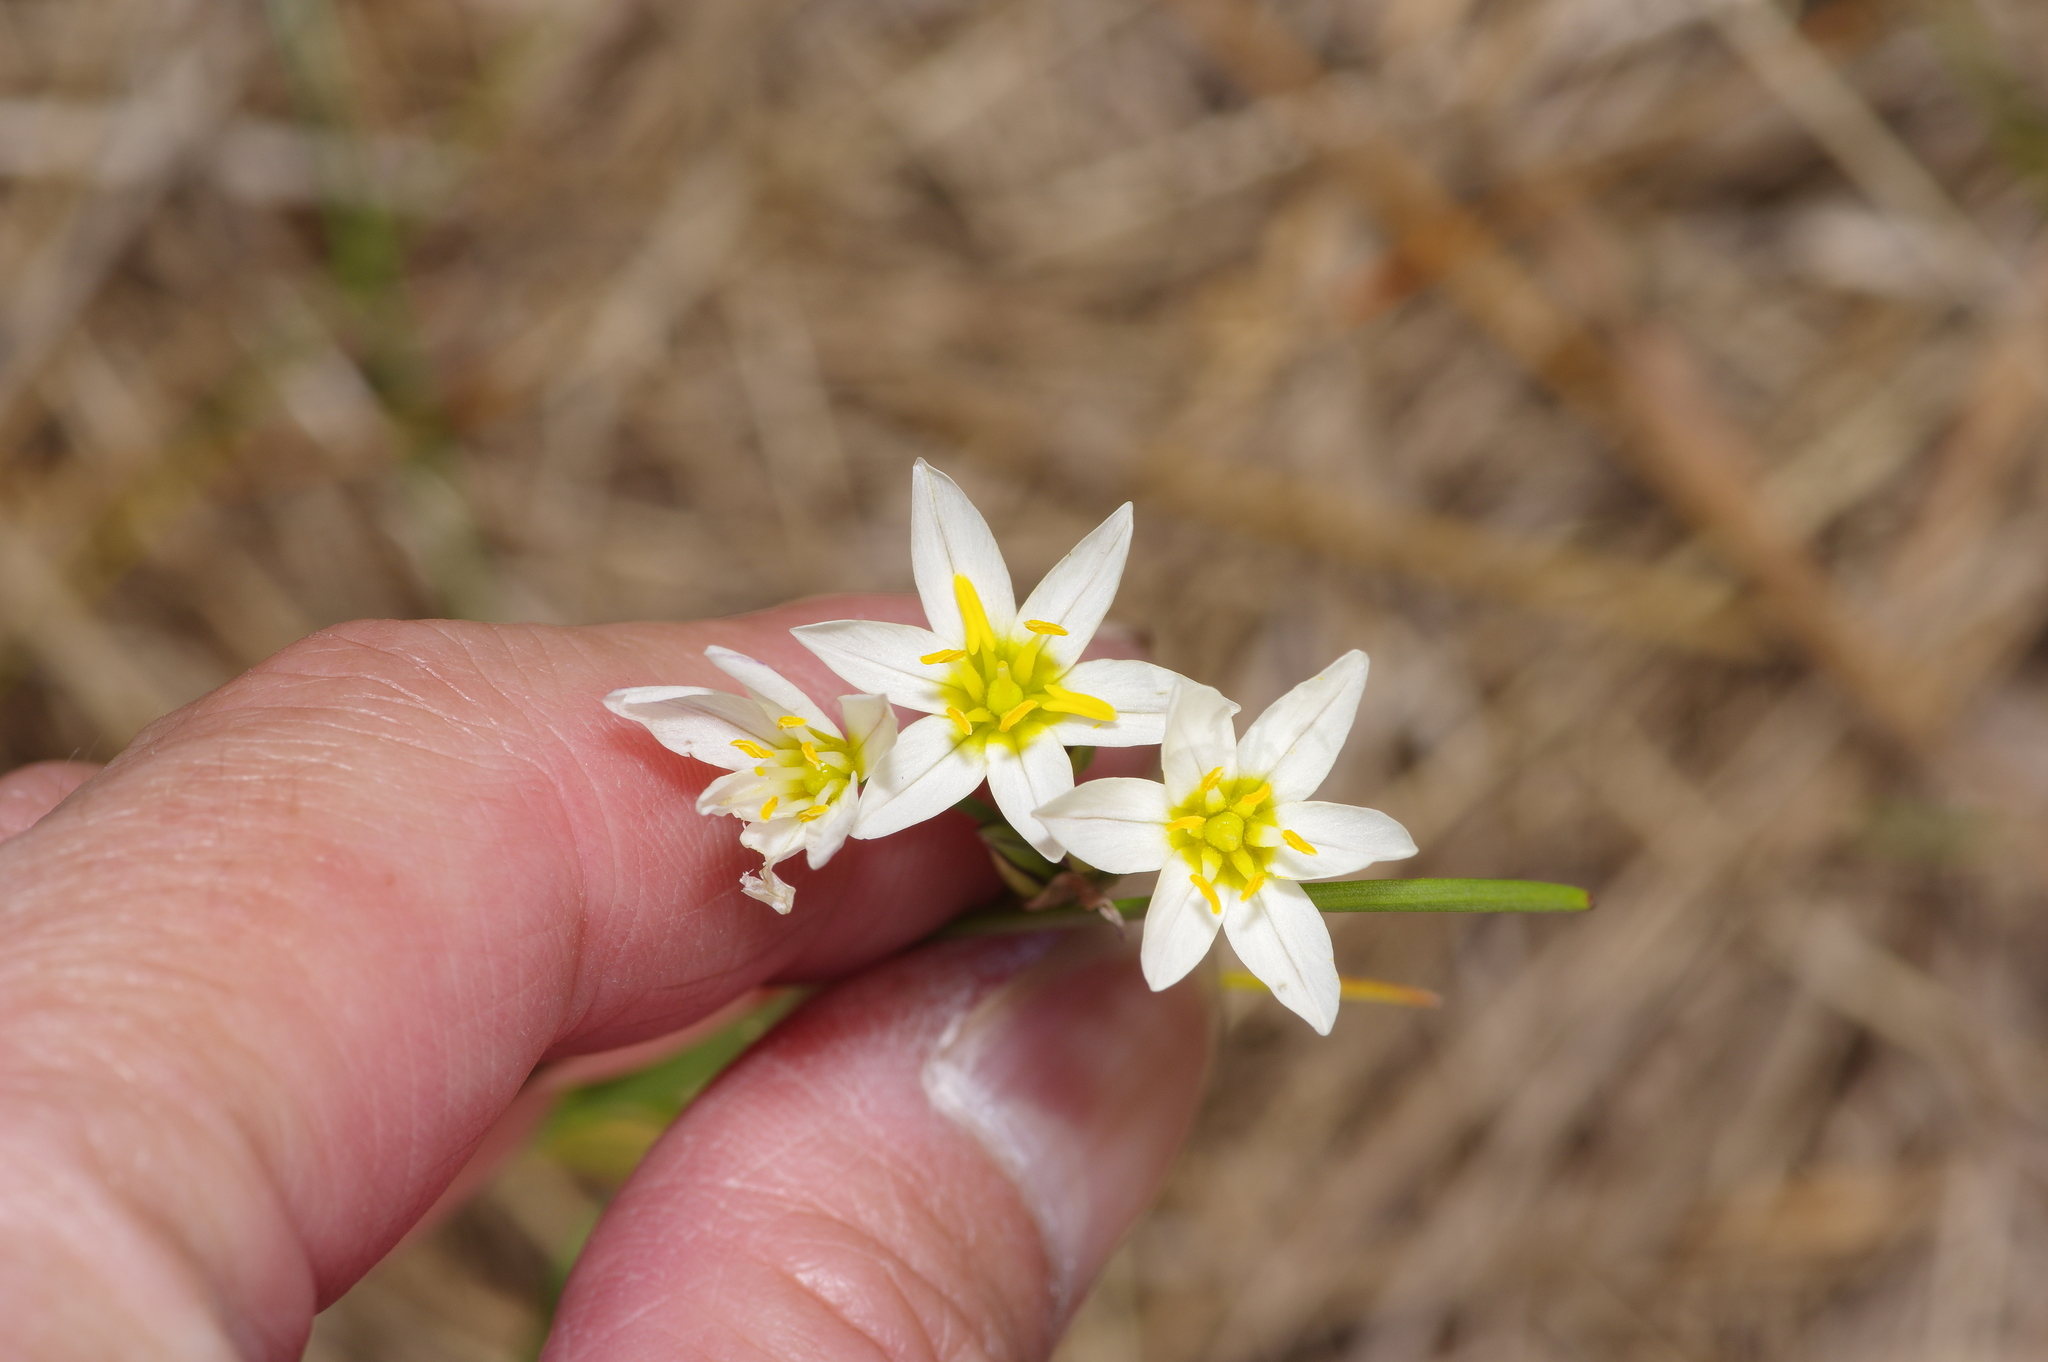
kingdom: Plantae
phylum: Tracheophyta
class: Liliopsida
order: Asparagales
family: Amaryllidaceae
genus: Nothoscordum
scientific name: Nothoscordum bivalve
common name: Crow-poison
